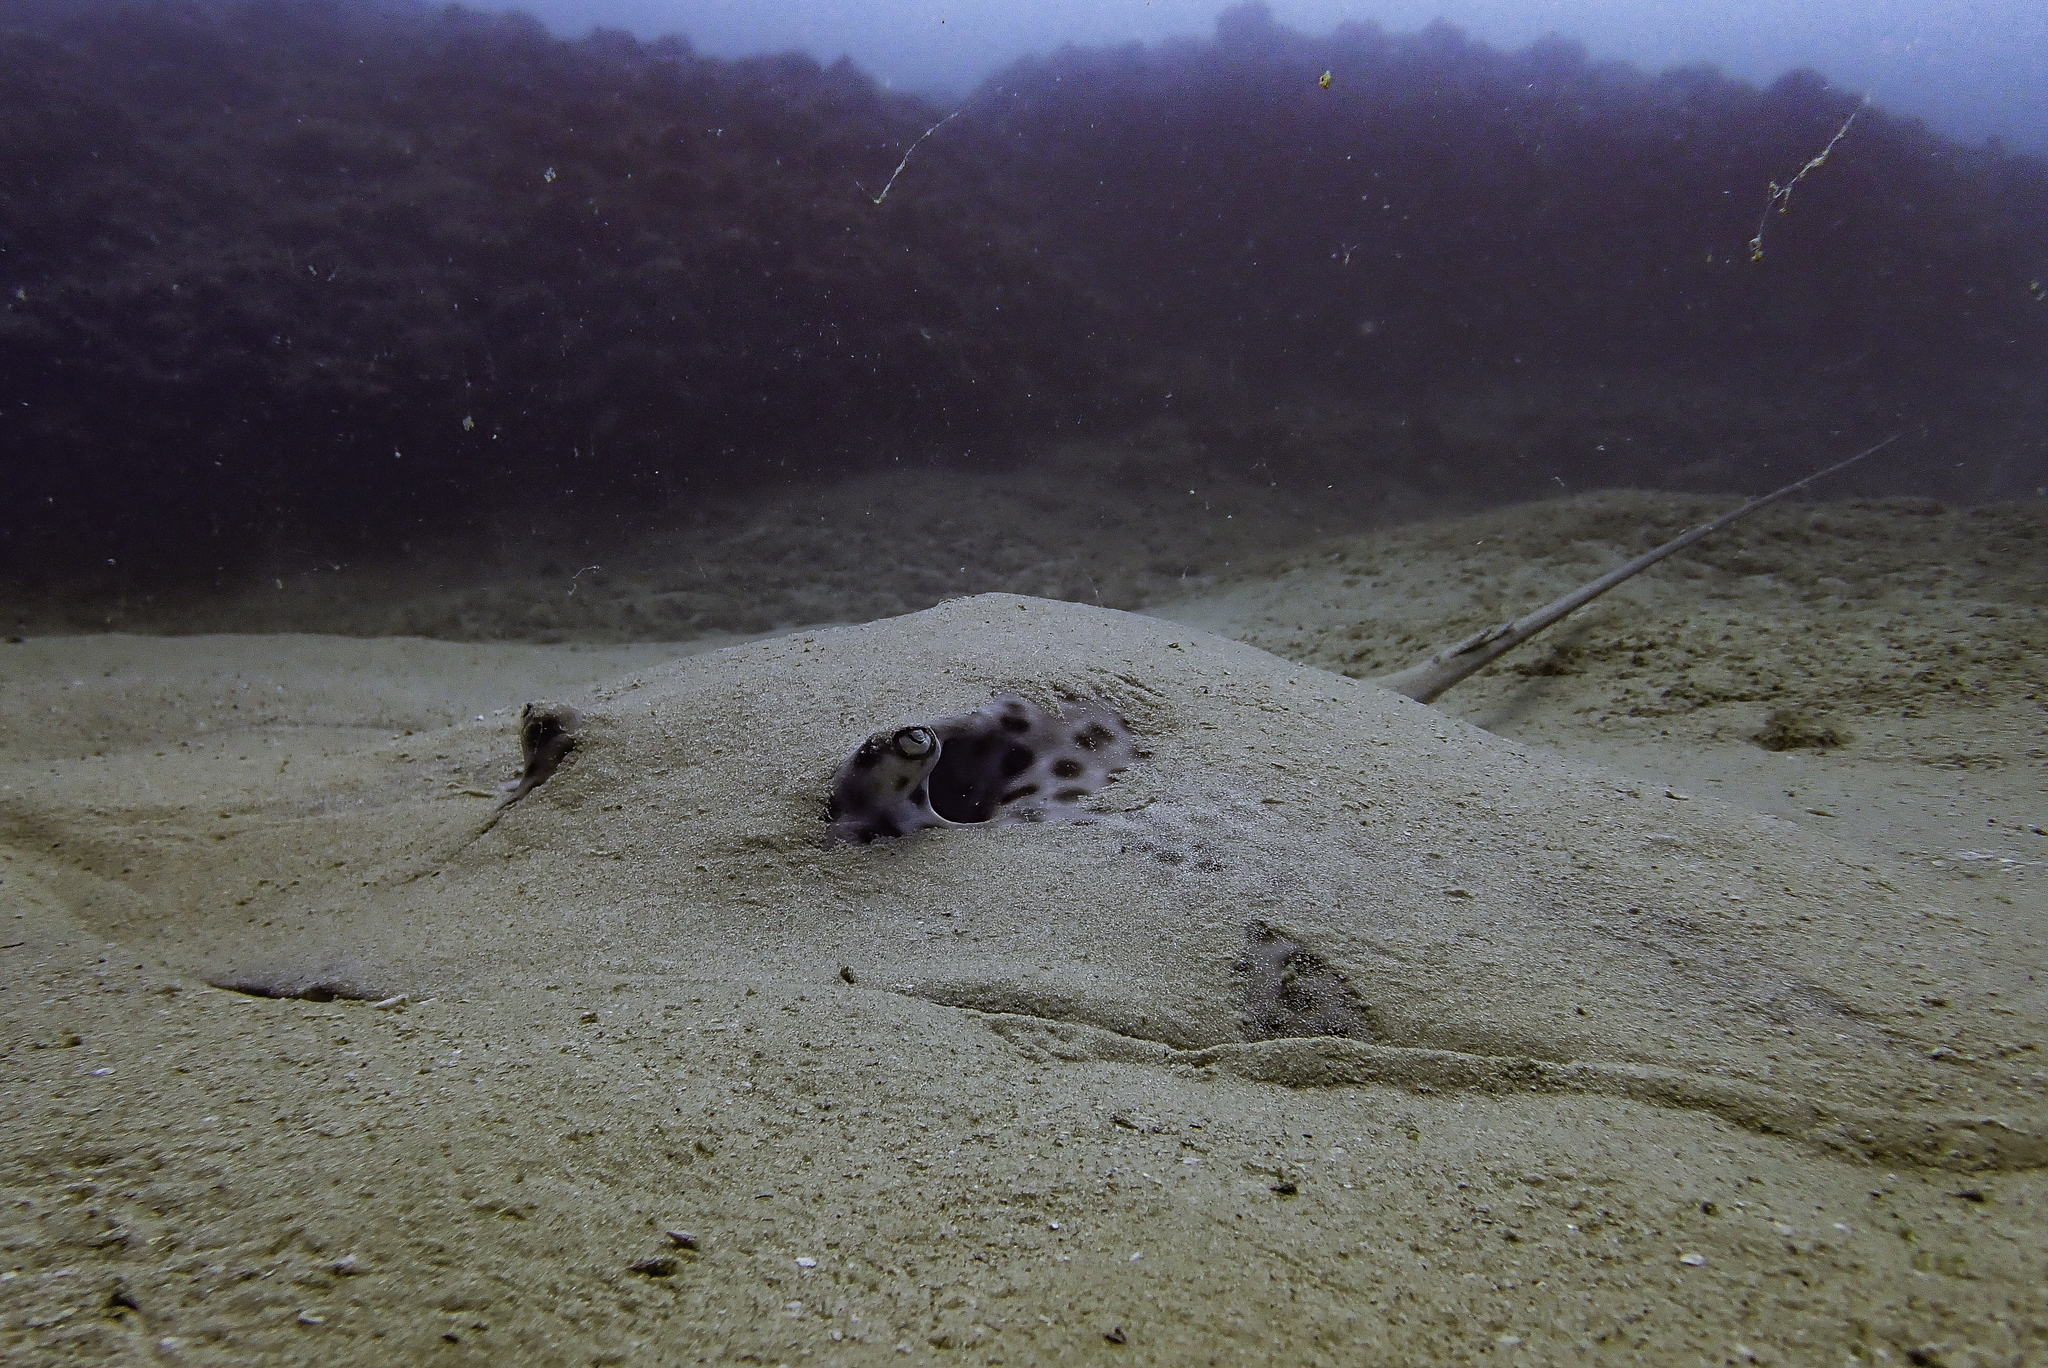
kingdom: Animalia
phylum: Chordata
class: Elasmobranchii
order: Myliobatiformes
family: Dasyatidae
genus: Himantura
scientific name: Himantura uarnak
